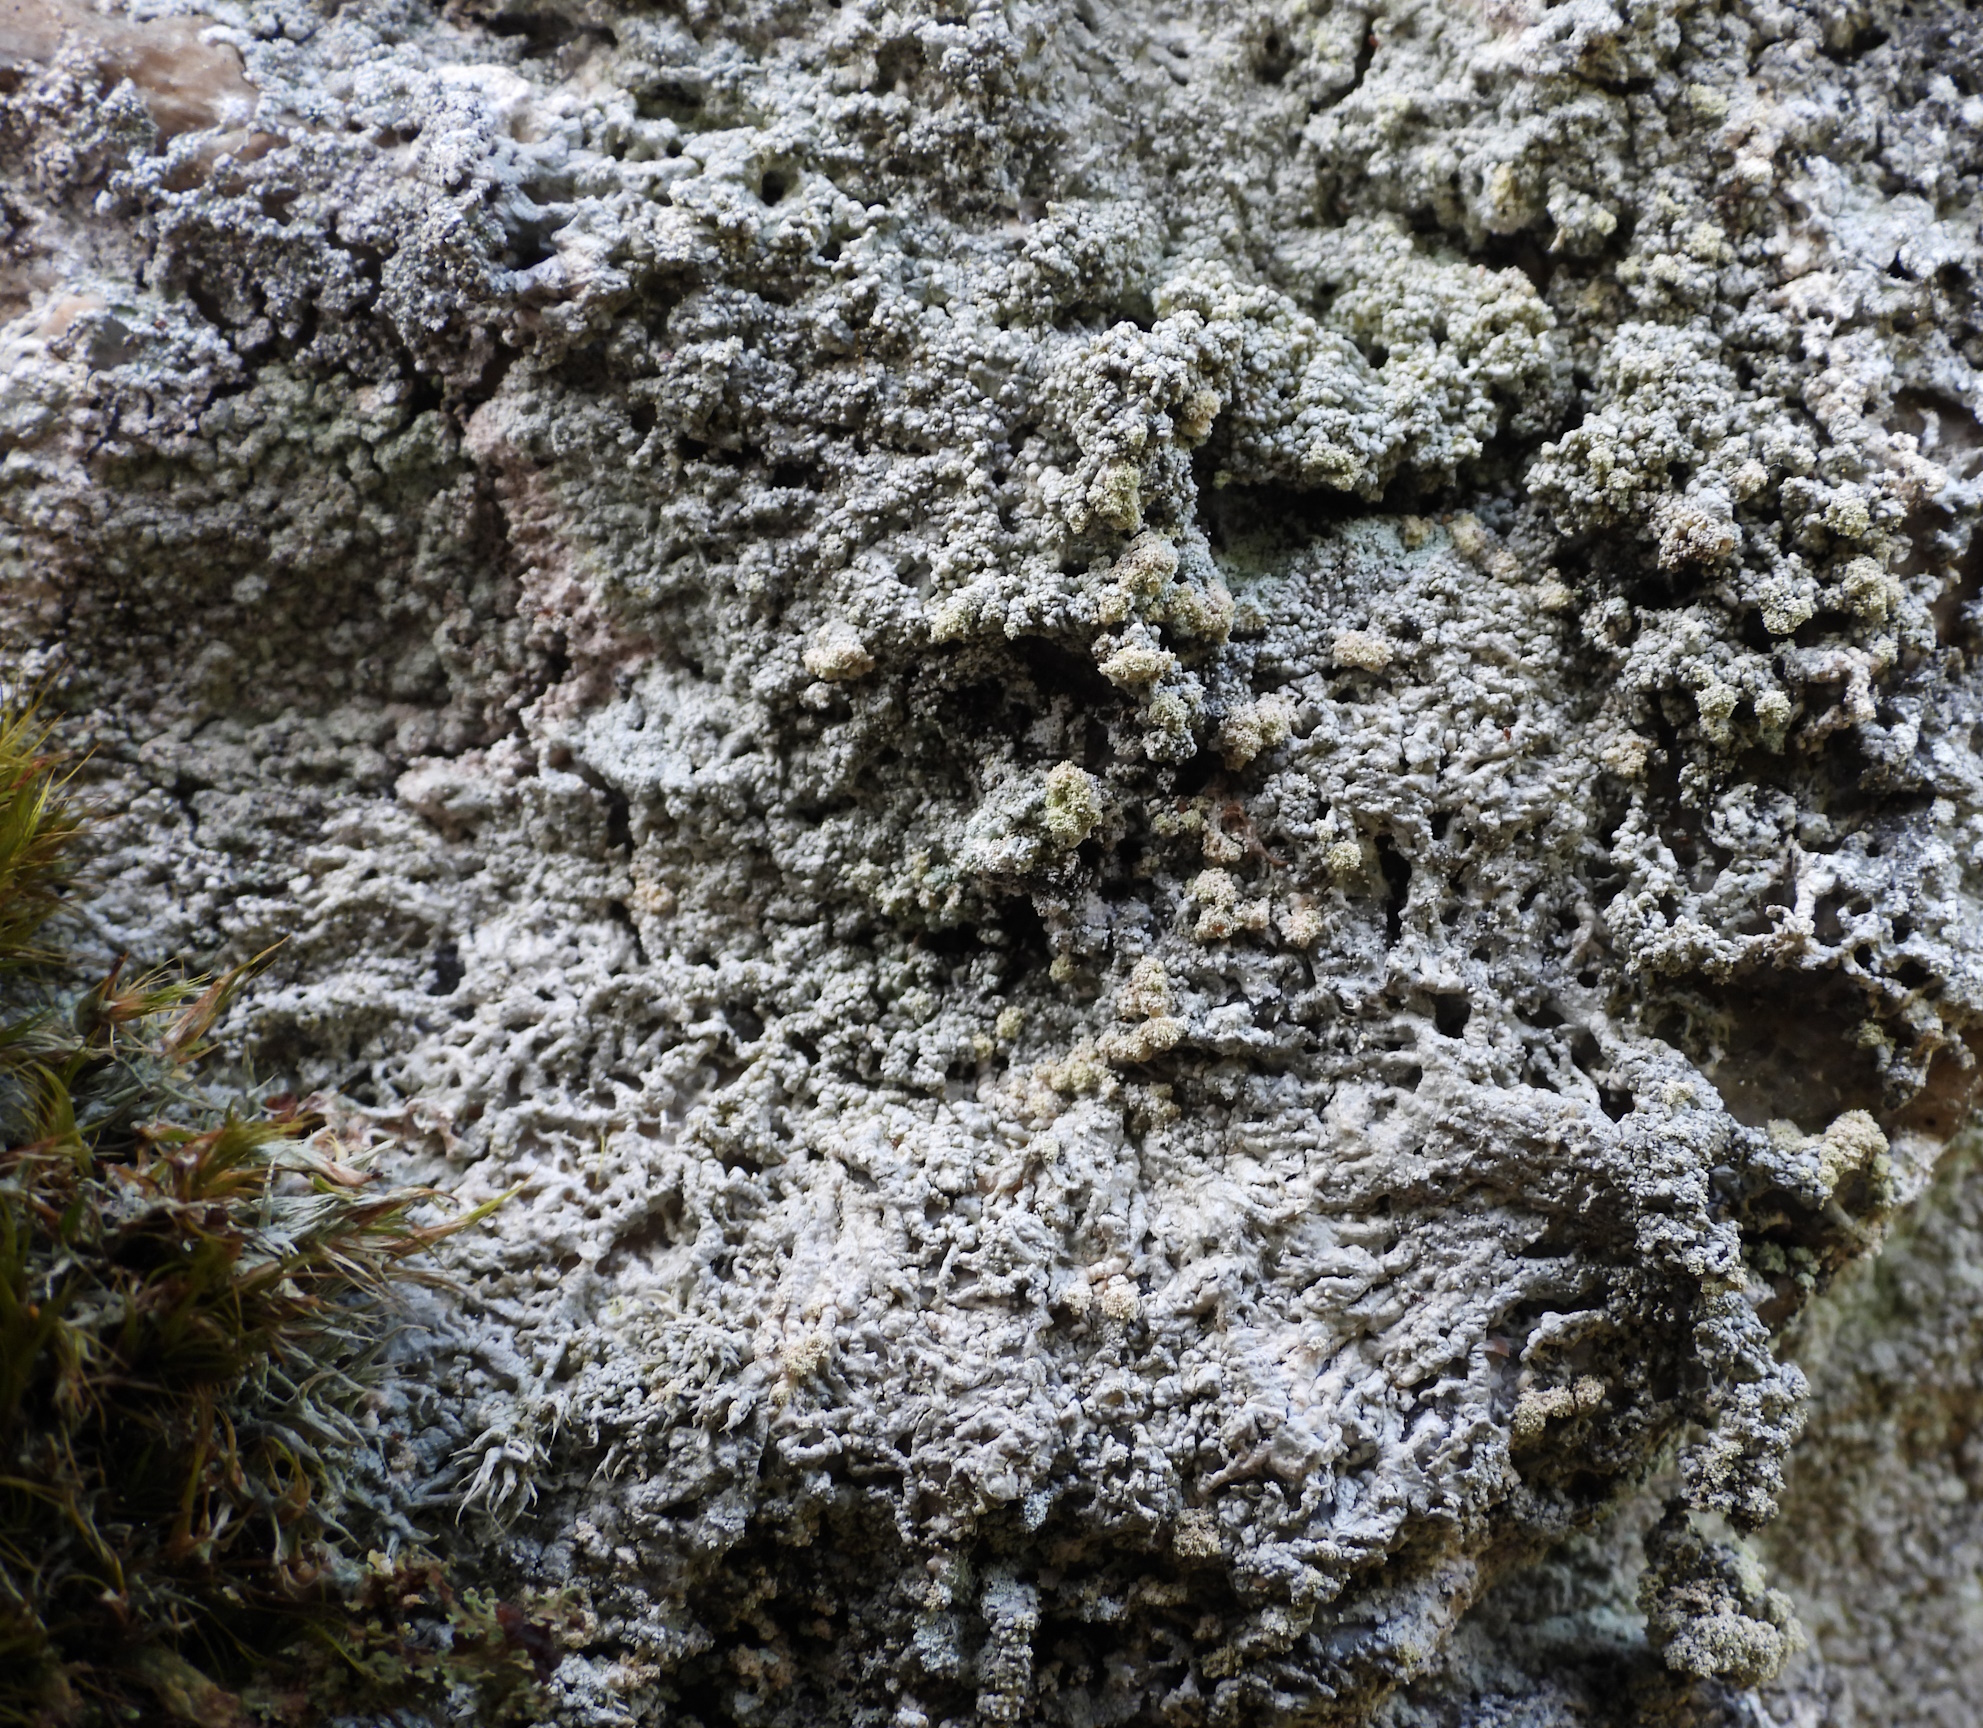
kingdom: Fungi
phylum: Ascomycota
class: Lecanoromycetes
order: Pertusariales
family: Ochrolechiaceae
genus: Ochrolechia
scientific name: Ochrolechia androgyna
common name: Powdery saucer lichen
